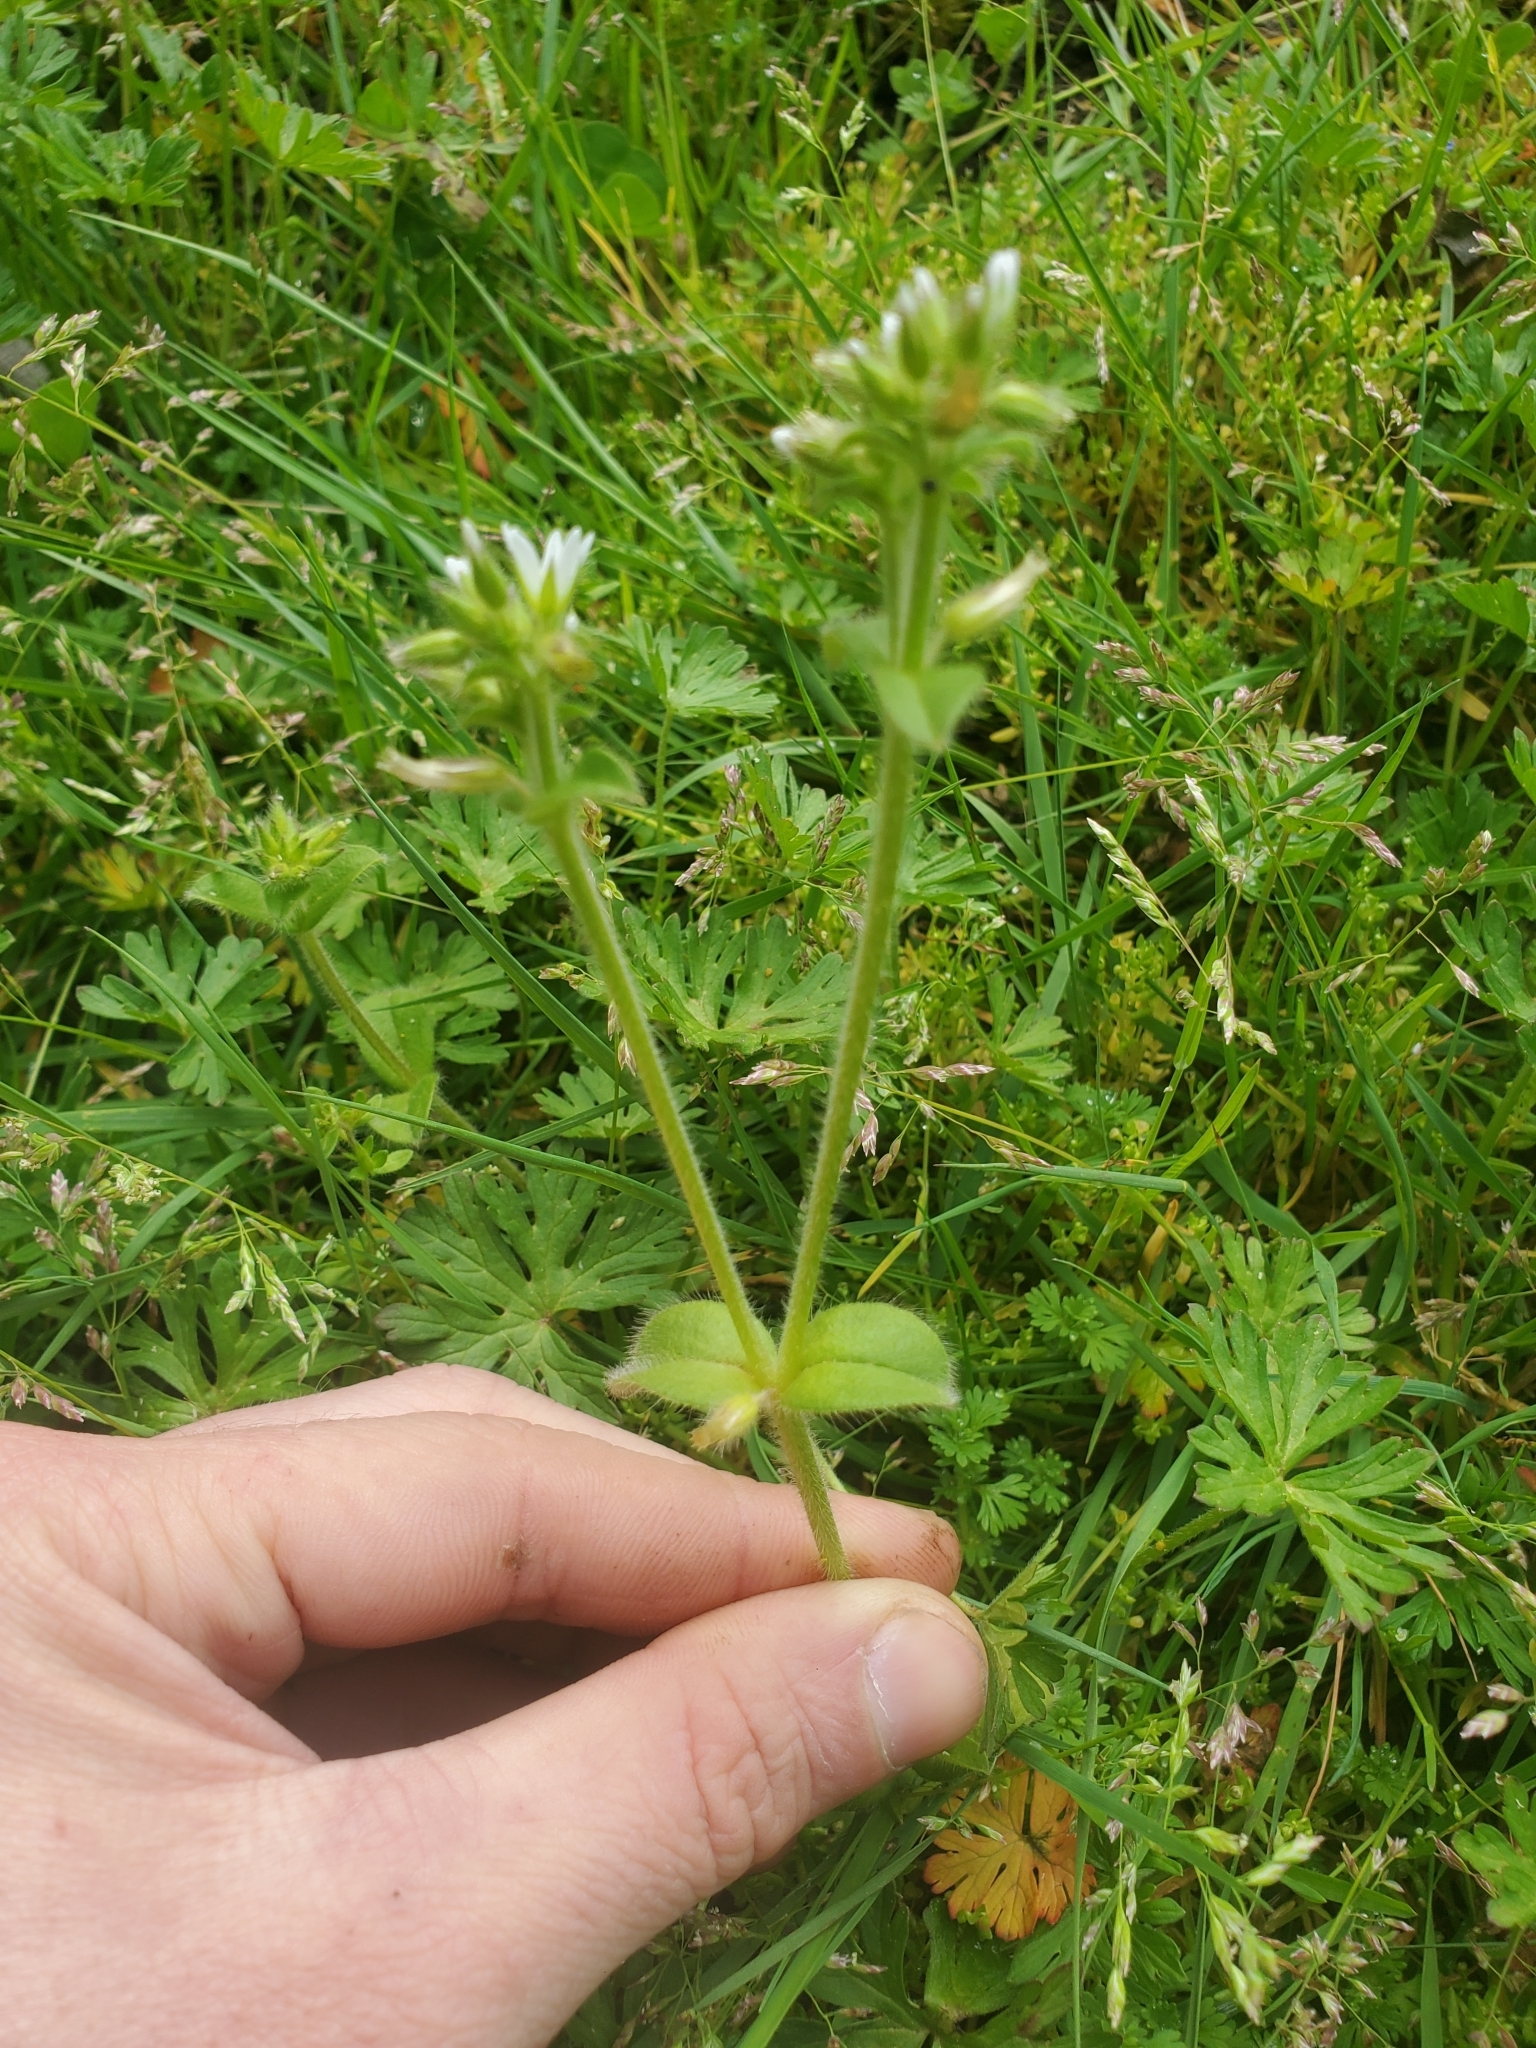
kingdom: Plantae
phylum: Tracheophyta
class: Magnoliopsida
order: Caryophyllales
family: Caryophyllaceae
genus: Cerastium
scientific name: Cerastium glomeratum
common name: Sticky chickweed
